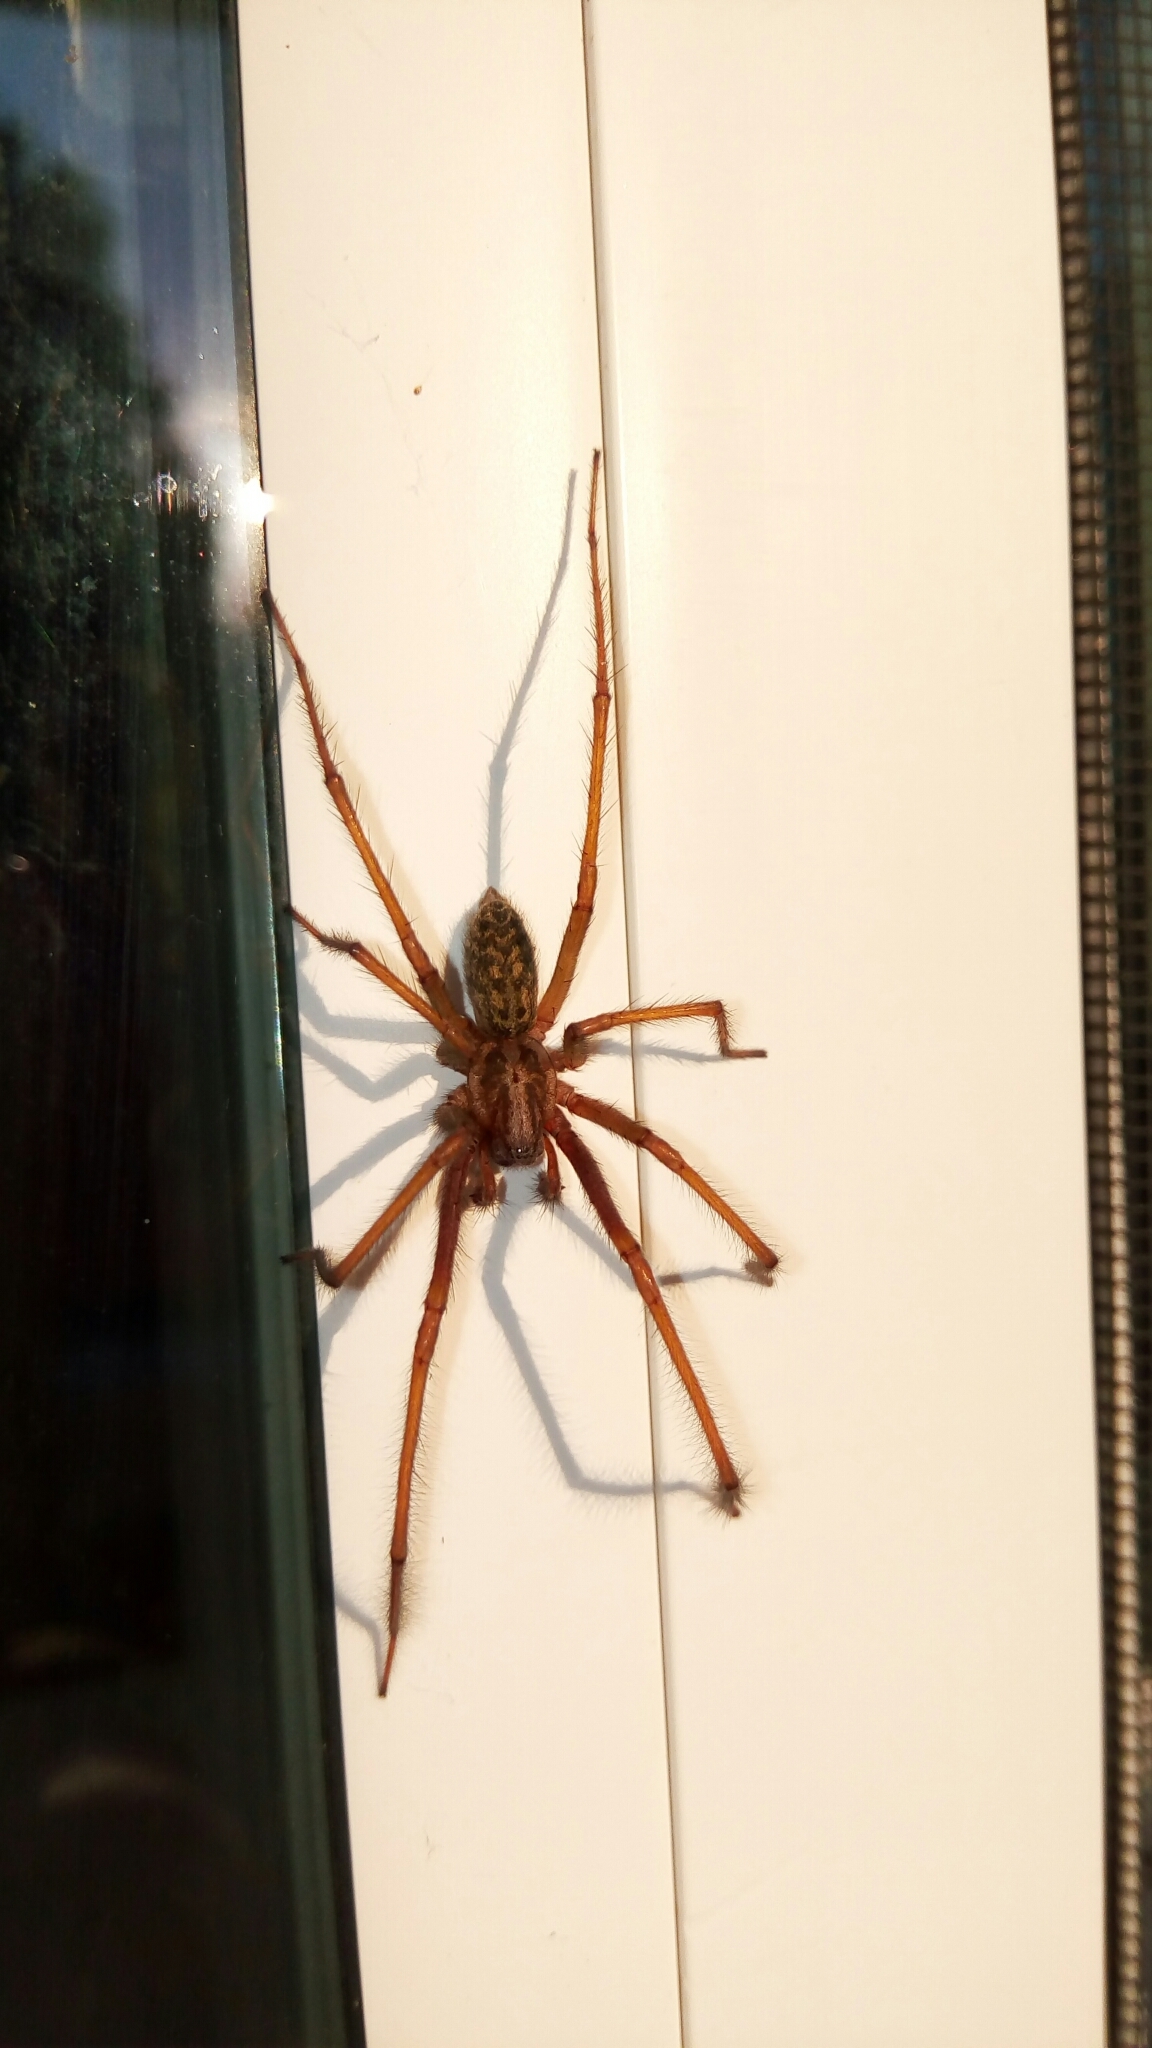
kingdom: Animalia
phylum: Arthropoda
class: Arachnida
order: Araneae
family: Agelenidae
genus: Eratigena
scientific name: Eratigena
